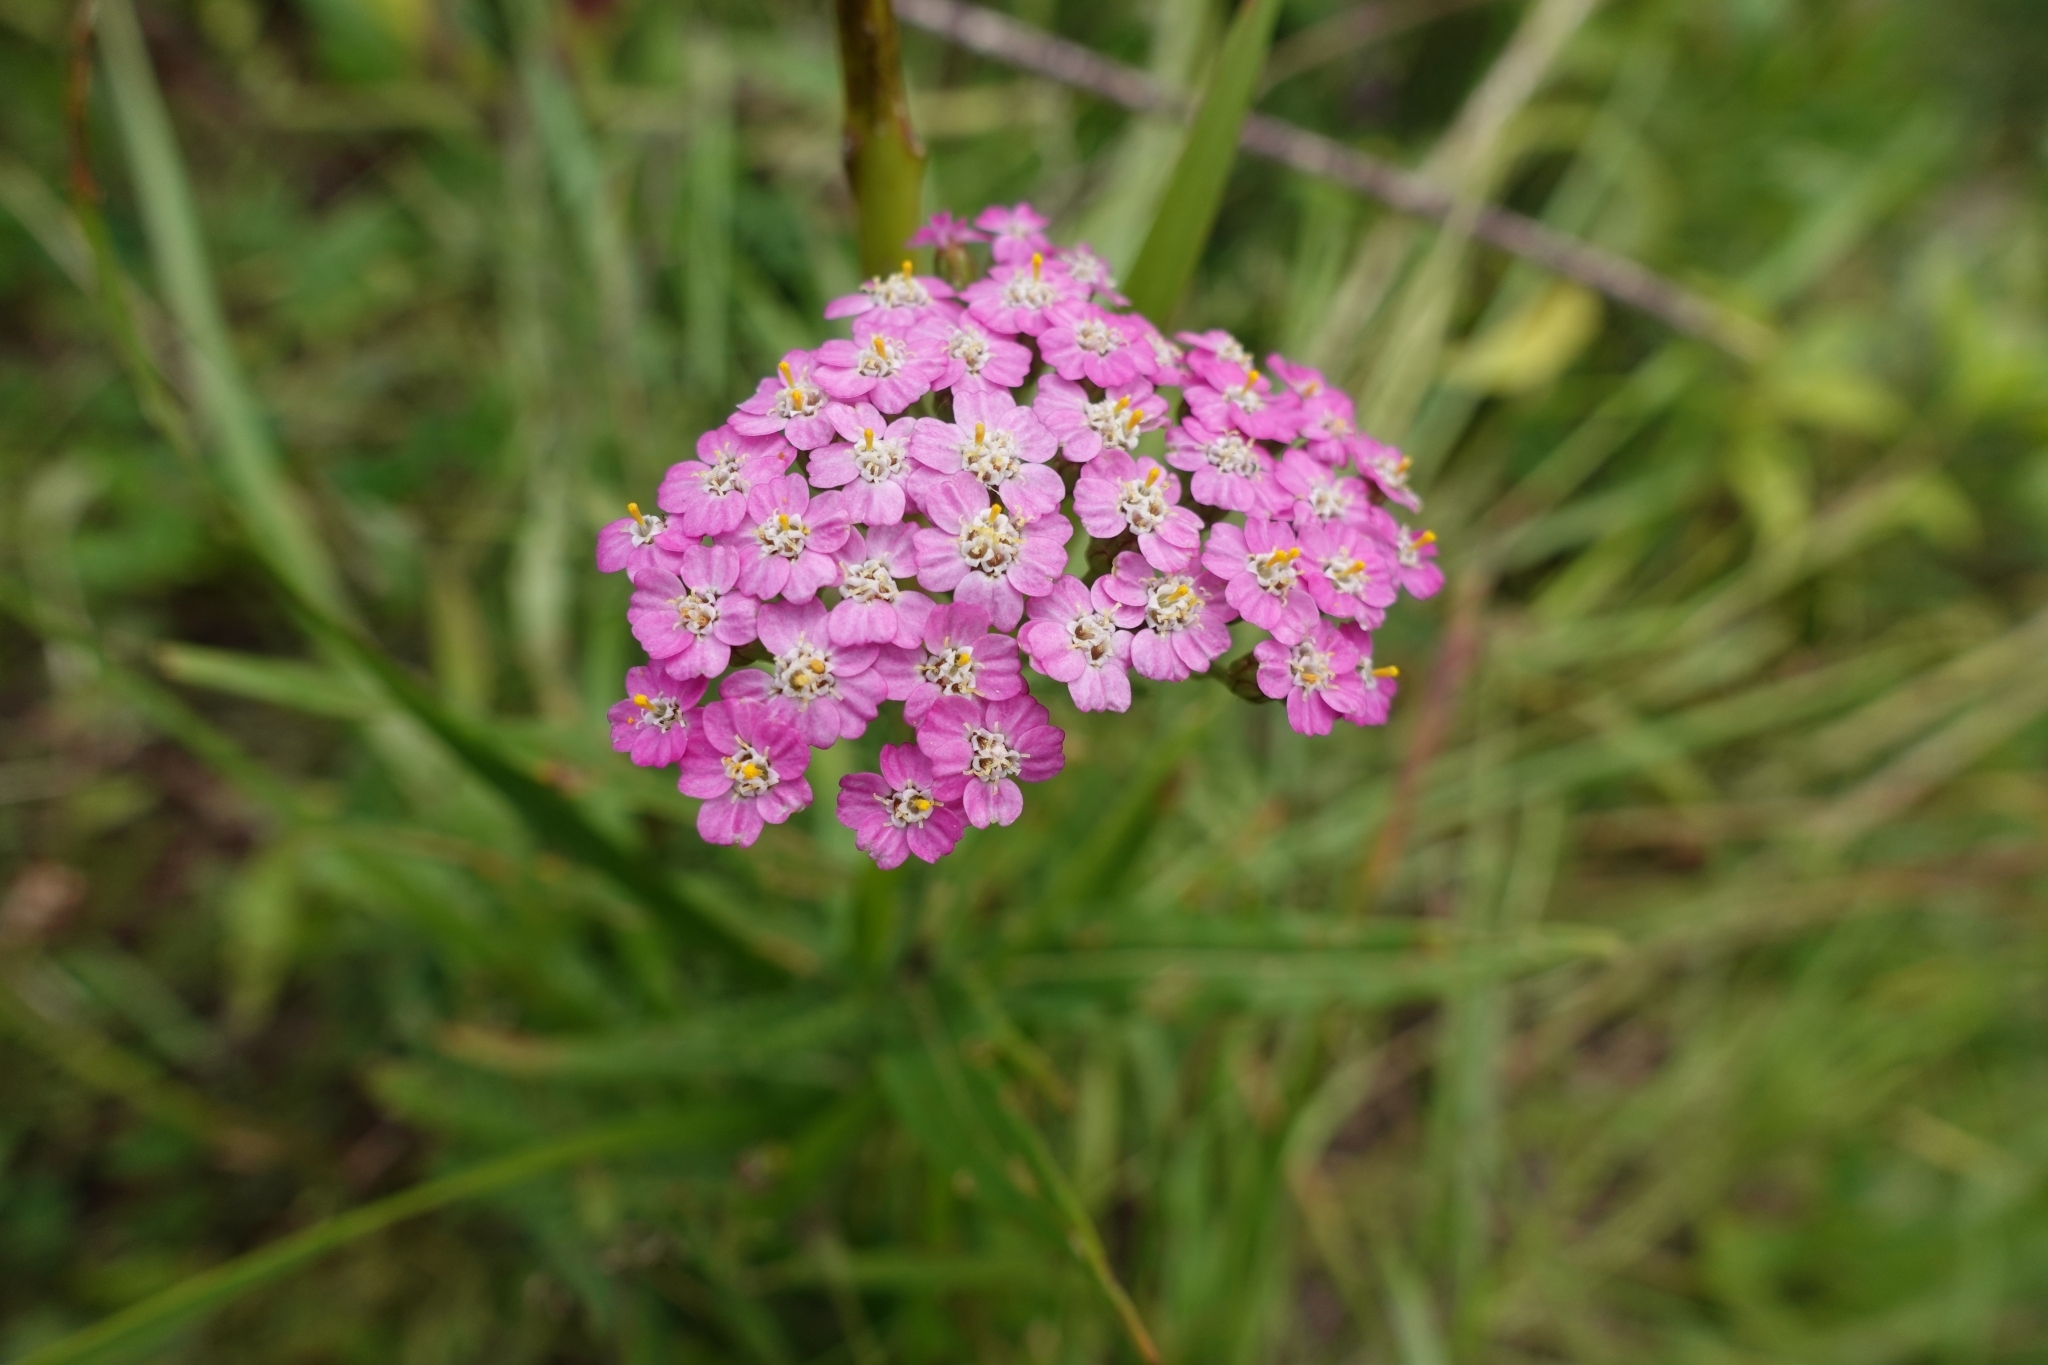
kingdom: Plantae
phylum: Tracheophyta
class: Magnoliopsida
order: Asterales
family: Asteraceae
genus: Achillea
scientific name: Achillea millefolium
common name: Yarrow
